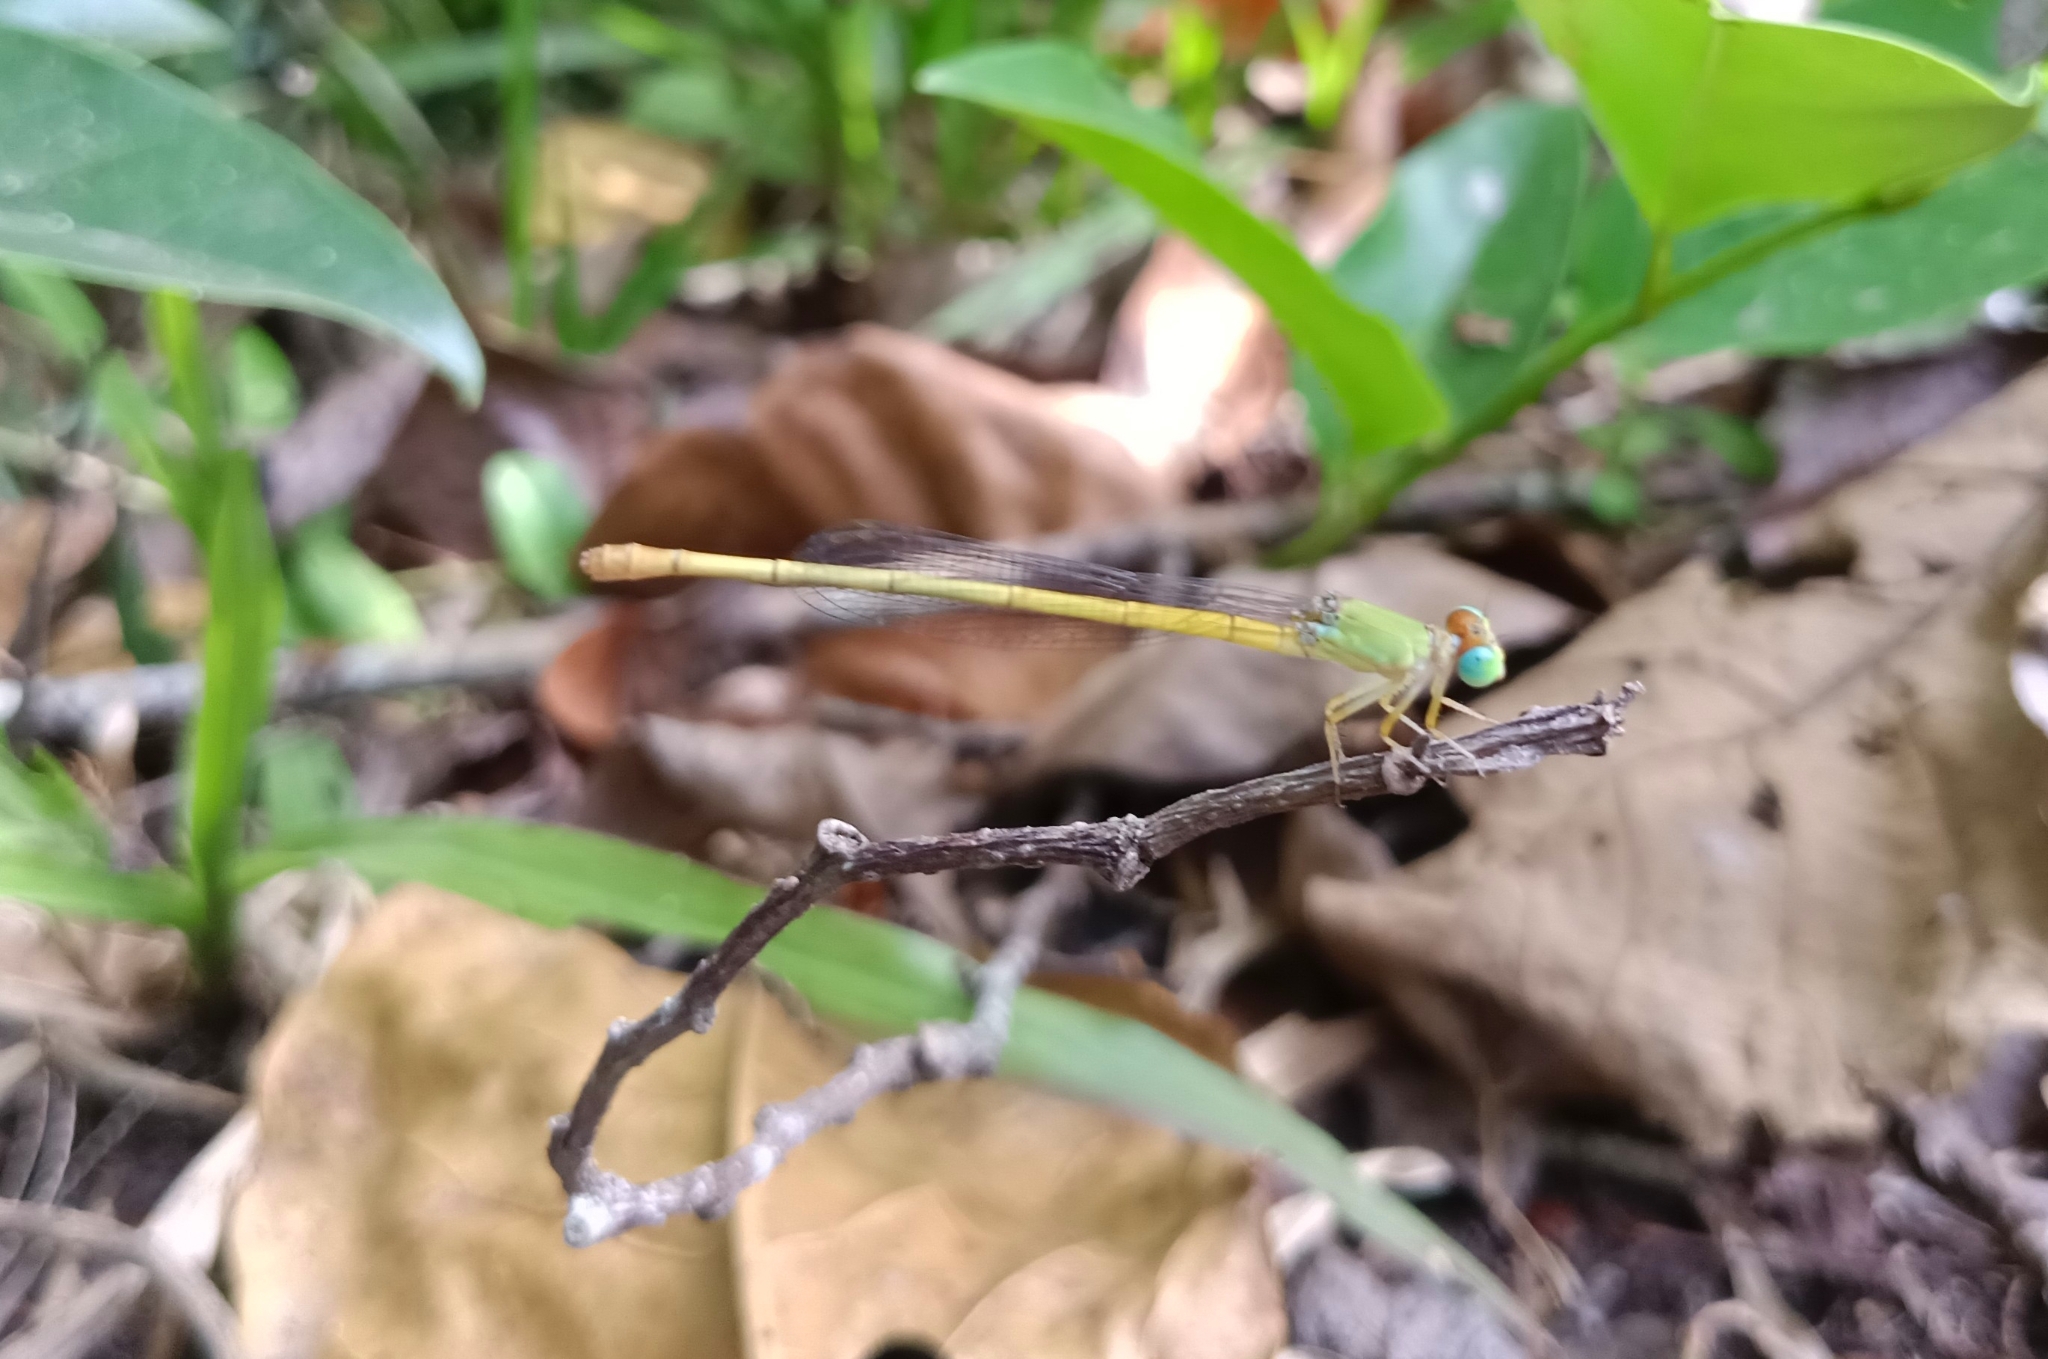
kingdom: Animalia
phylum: Arthropoda
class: Insecta
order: Odonata
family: Coenagrionidae
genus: Ceriagrion
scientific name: Ceriagrion coromandelianum
